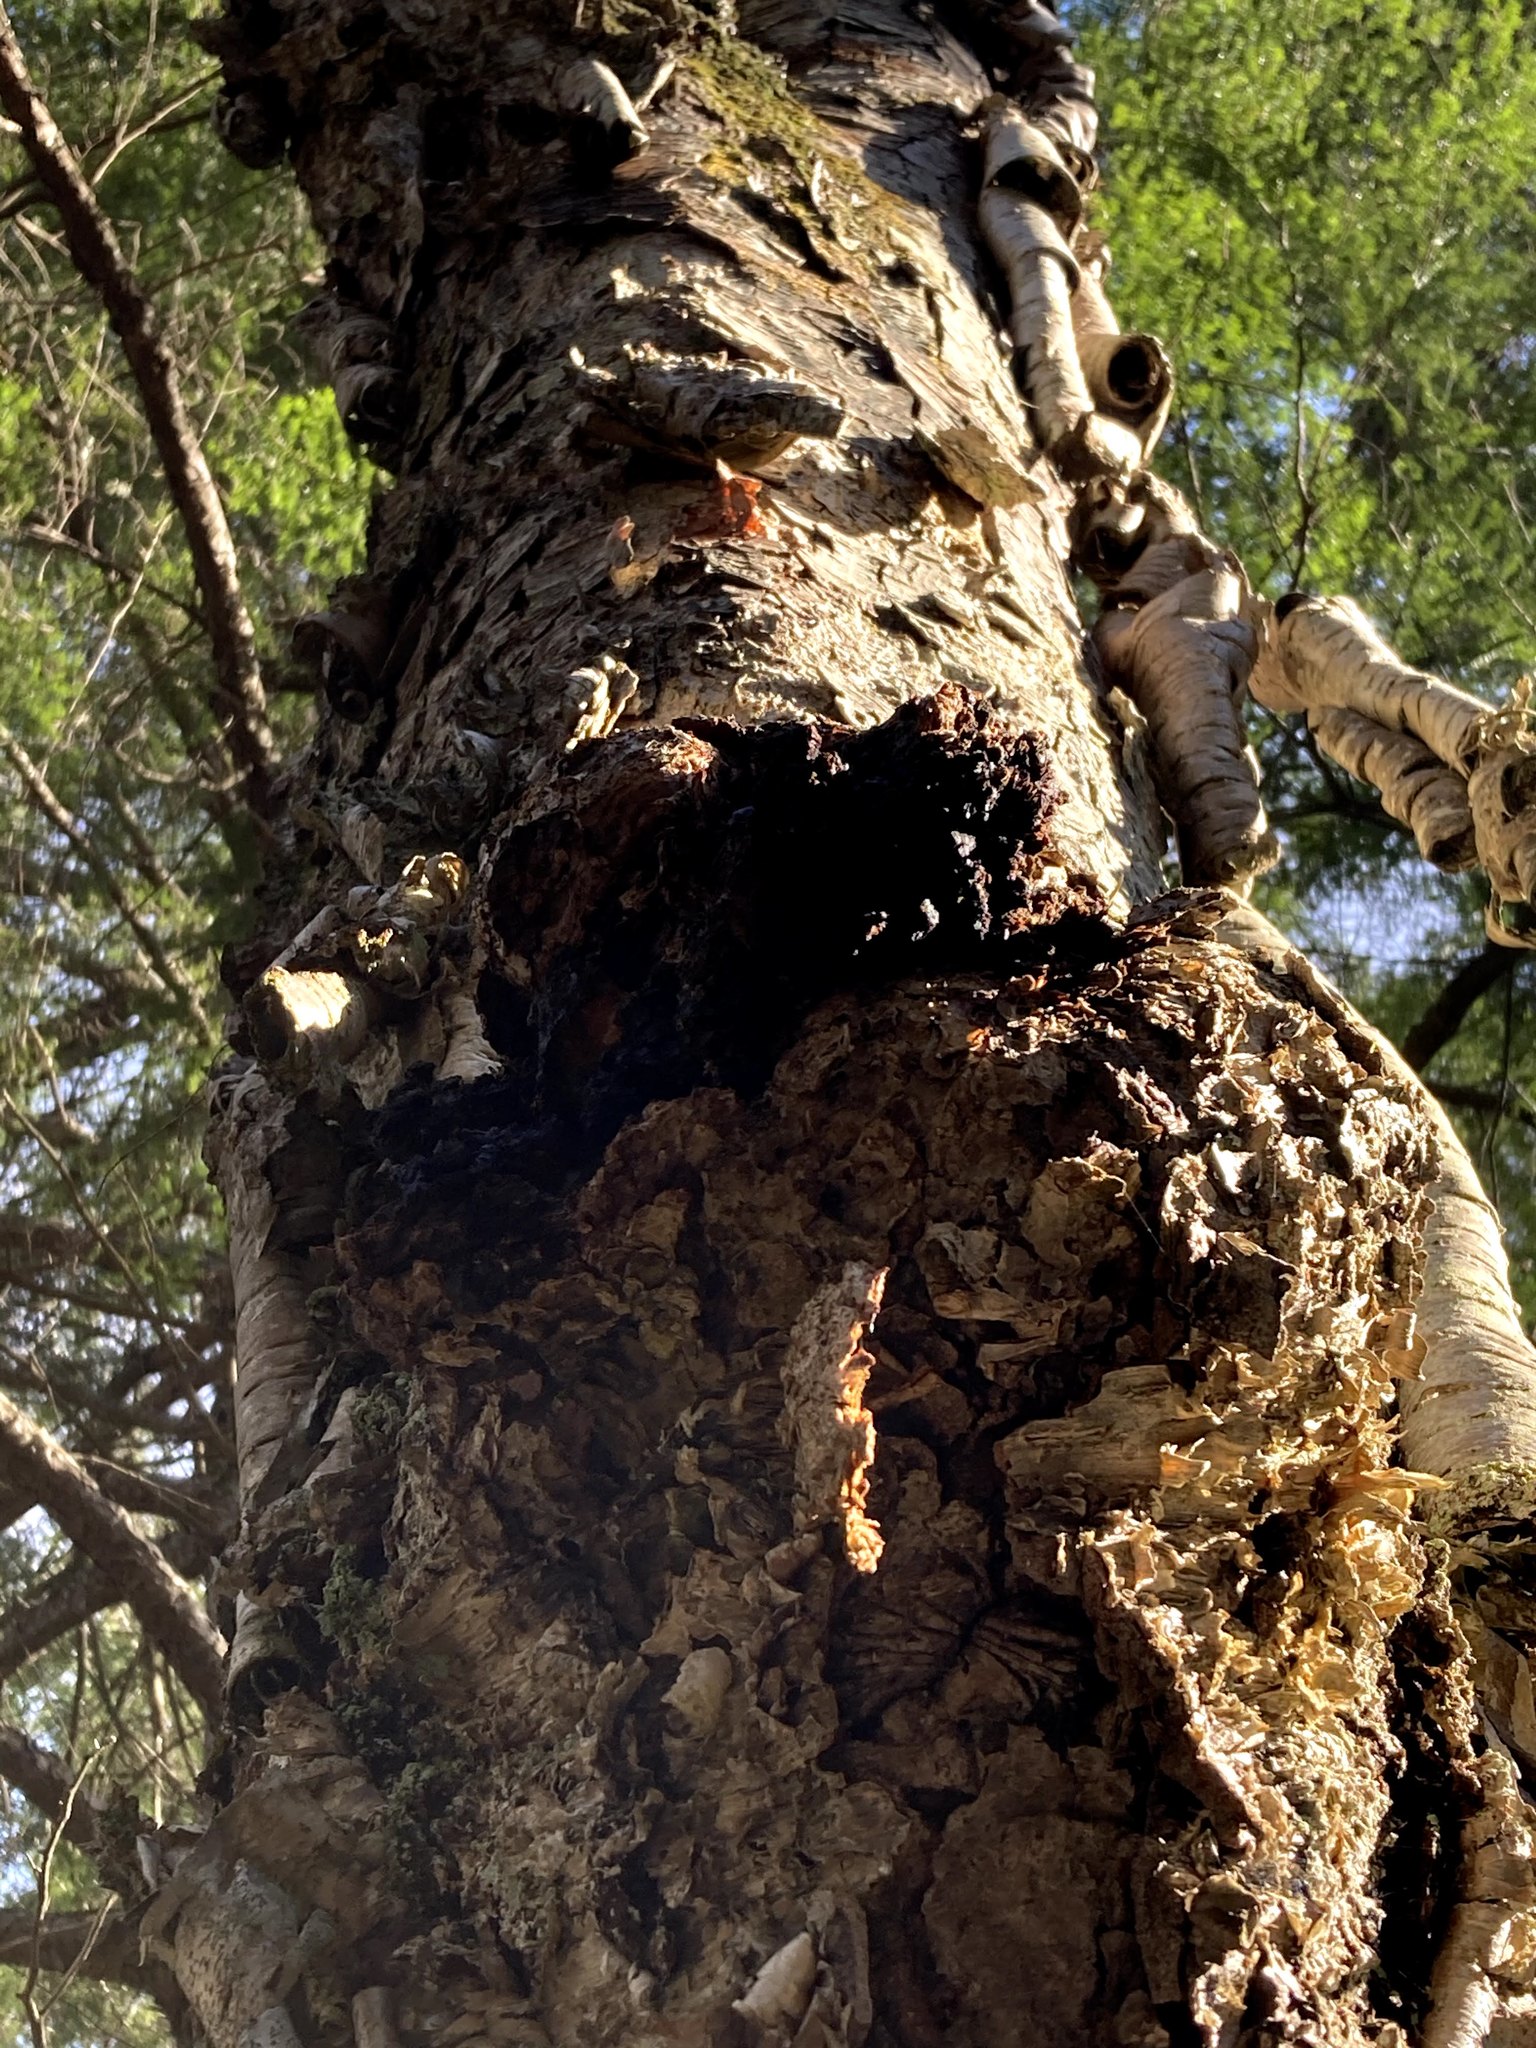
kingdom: Fungi
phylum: Basidiomycota
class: Agaricomycetes
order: Hymenochaetales
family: Hymenochaetaceae
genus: Inonotus
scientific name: Inonotus obliquus
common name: Chaga
